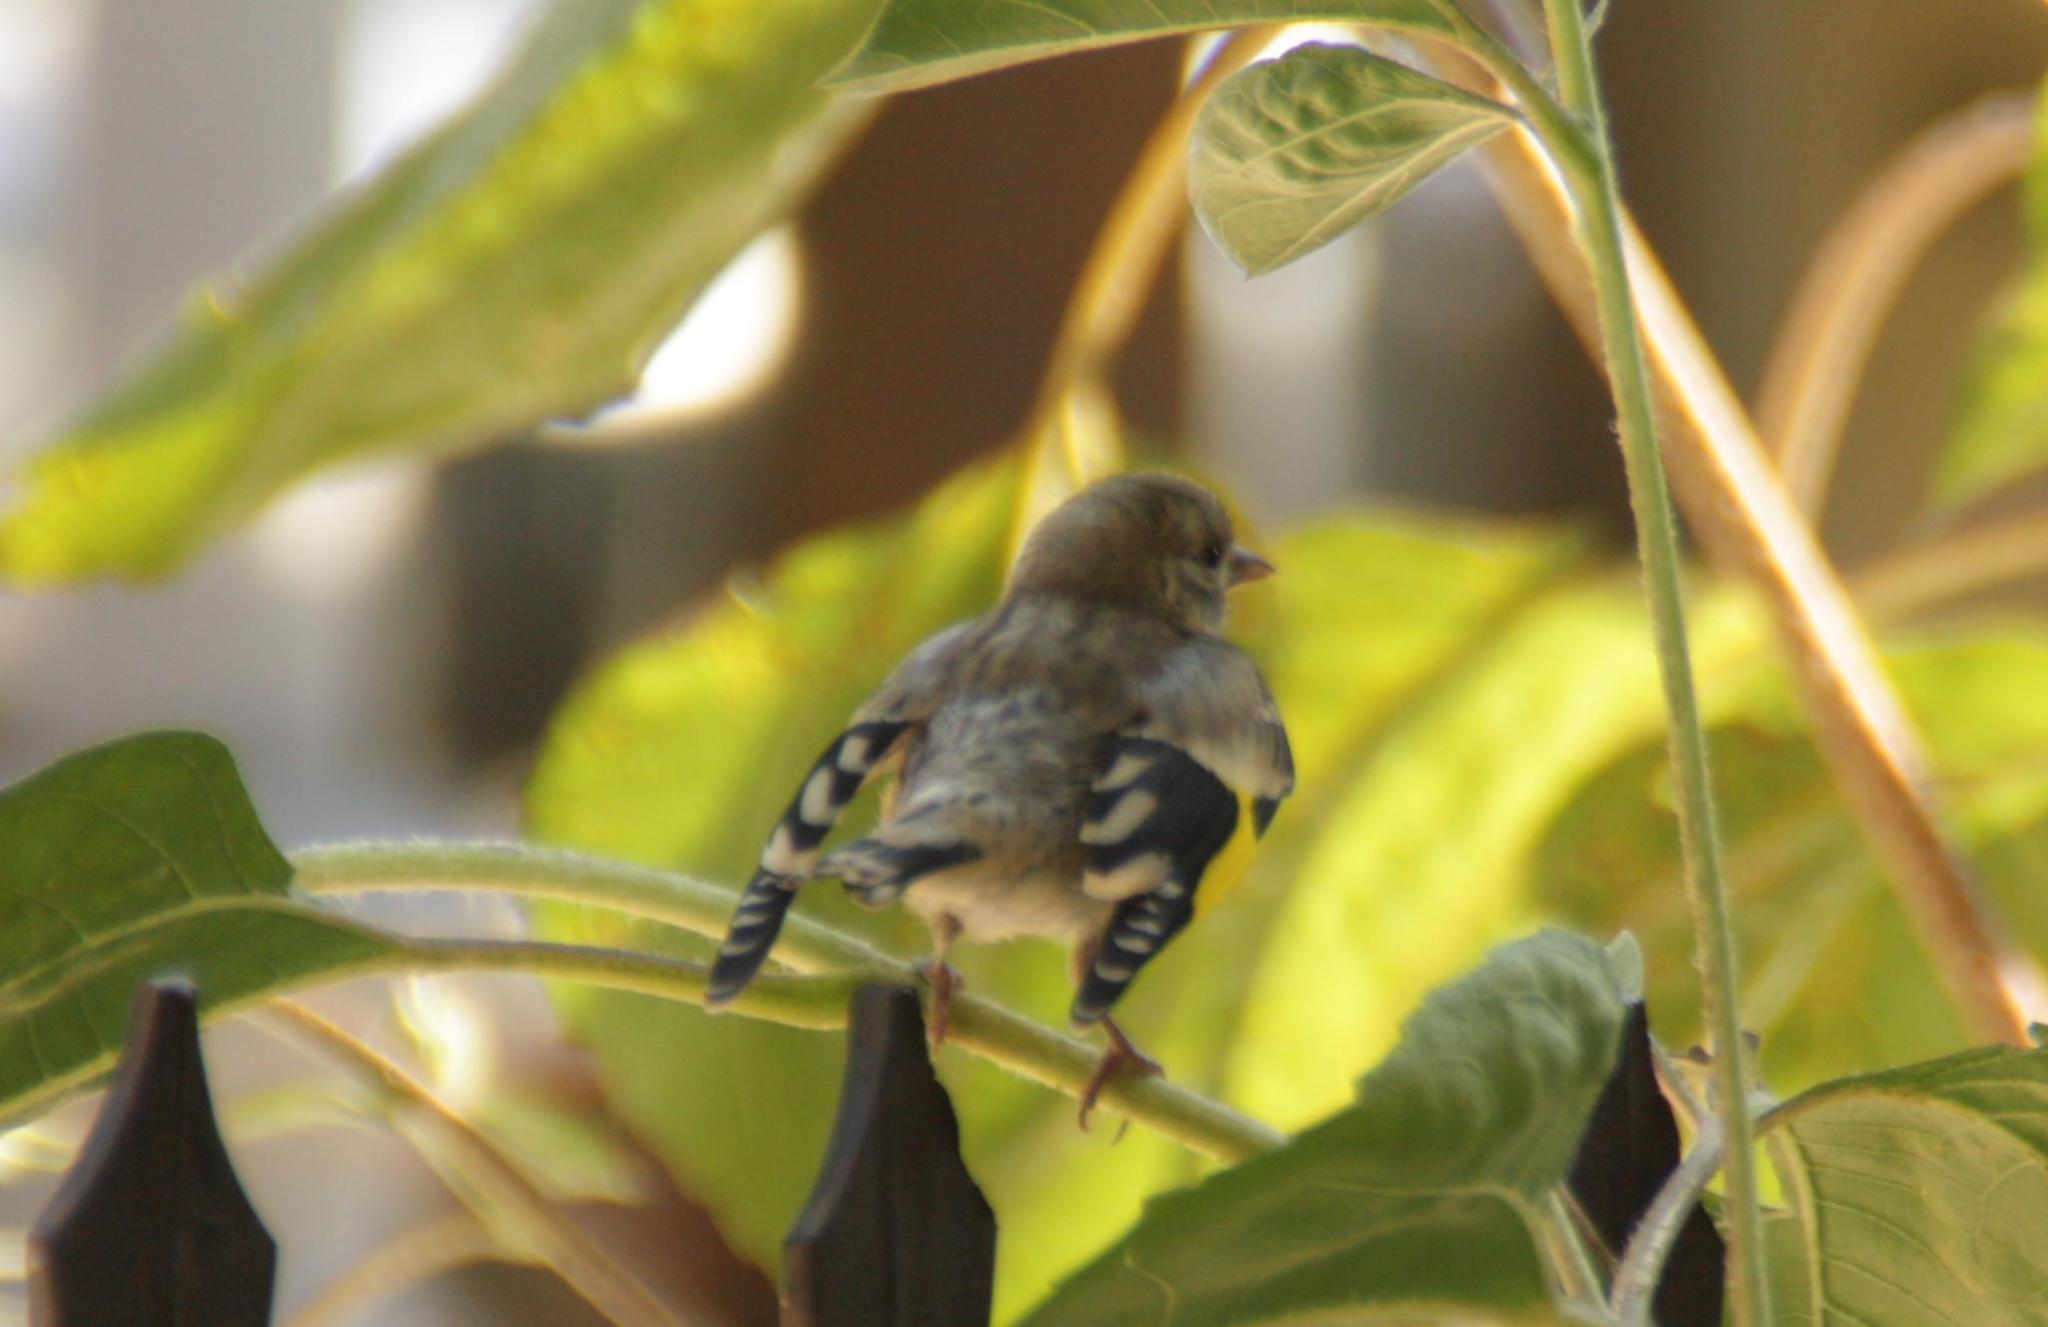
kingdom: Animalia
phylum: Chordata
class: Aves
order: Passeriformes
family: Fringillidae
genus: Carduelis
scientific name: Carduelis carduelis
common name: European goldfinch
